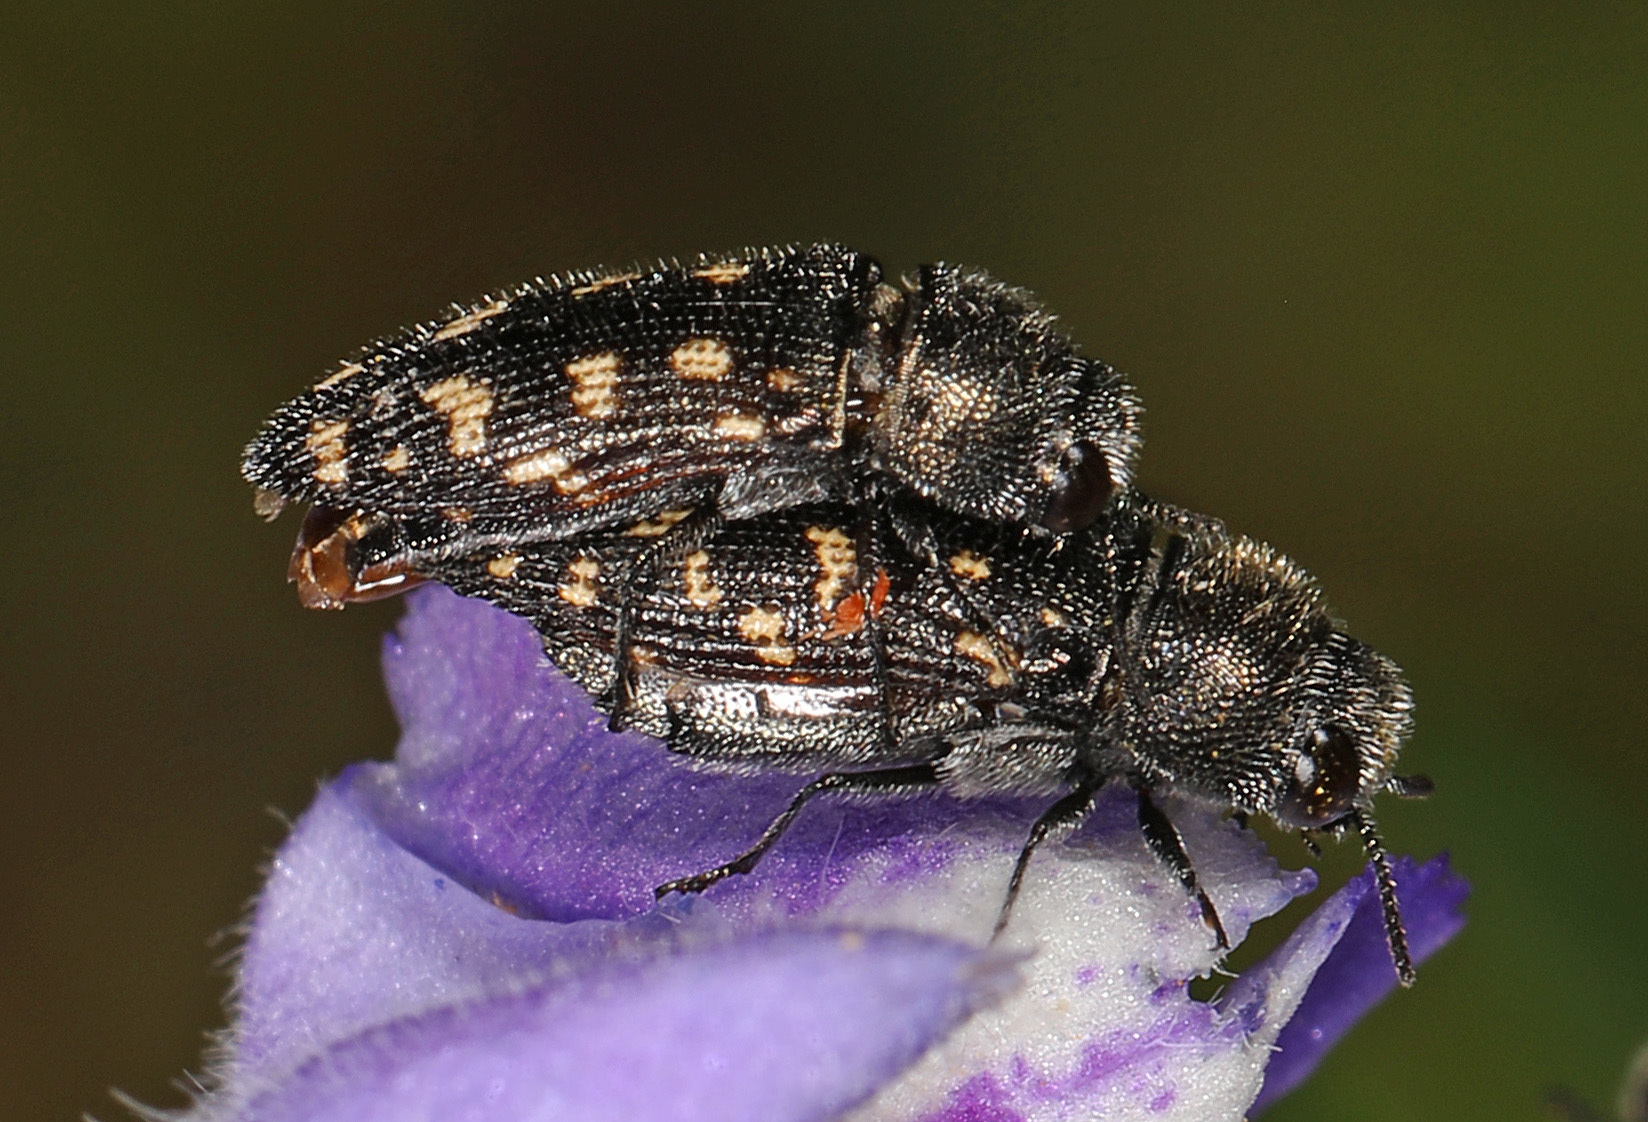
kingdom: Animalia
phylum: Arthropoda
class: Insecta
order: Coleoptera
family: Buprestidae
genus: Acmaeodera
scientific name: Acmaeodera tubulus
